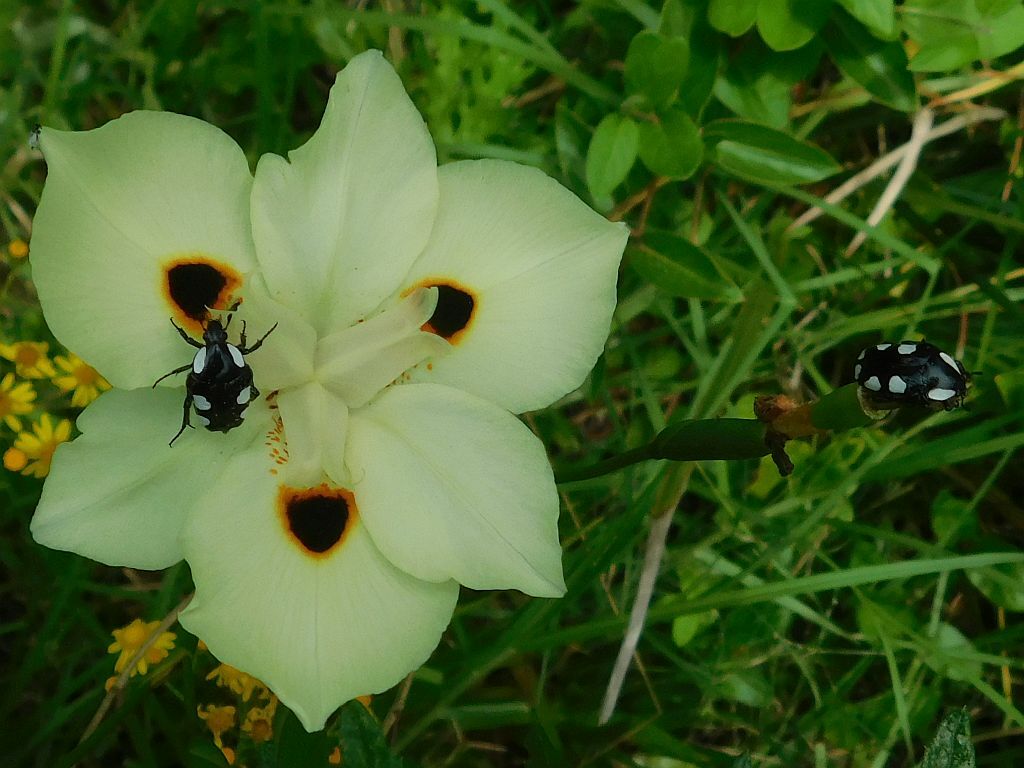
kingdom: Animalia
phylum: Arthropoda
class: Insecta
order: Coleoptera
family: Scarabaeidae
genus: Mausoleopsis
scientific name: Mausoleopsis amabilis
